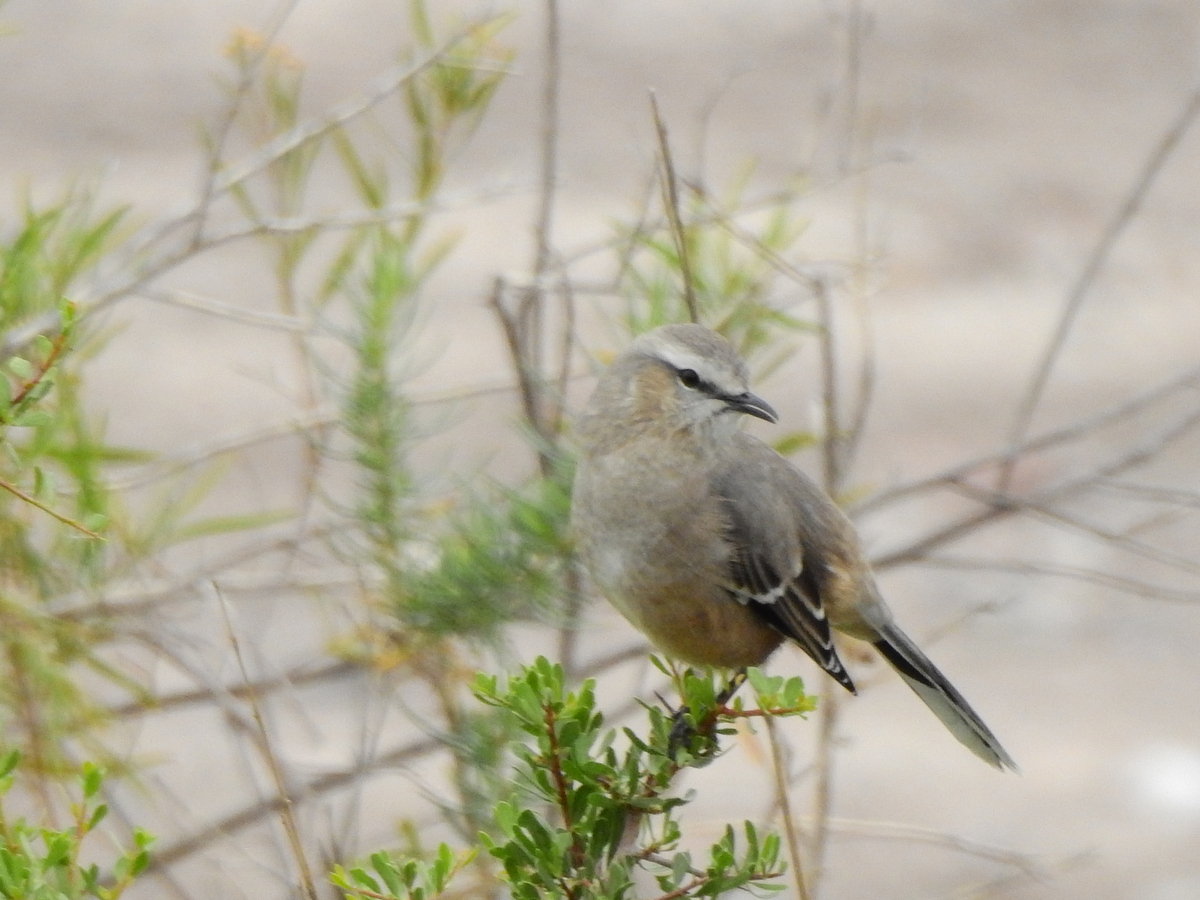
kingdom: Animalia
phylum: Chordata
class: Aves
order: Passeriformes
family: Mimidae
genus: Mimus
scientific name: Mimus patagonicus
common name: Patagonian mockingbird
